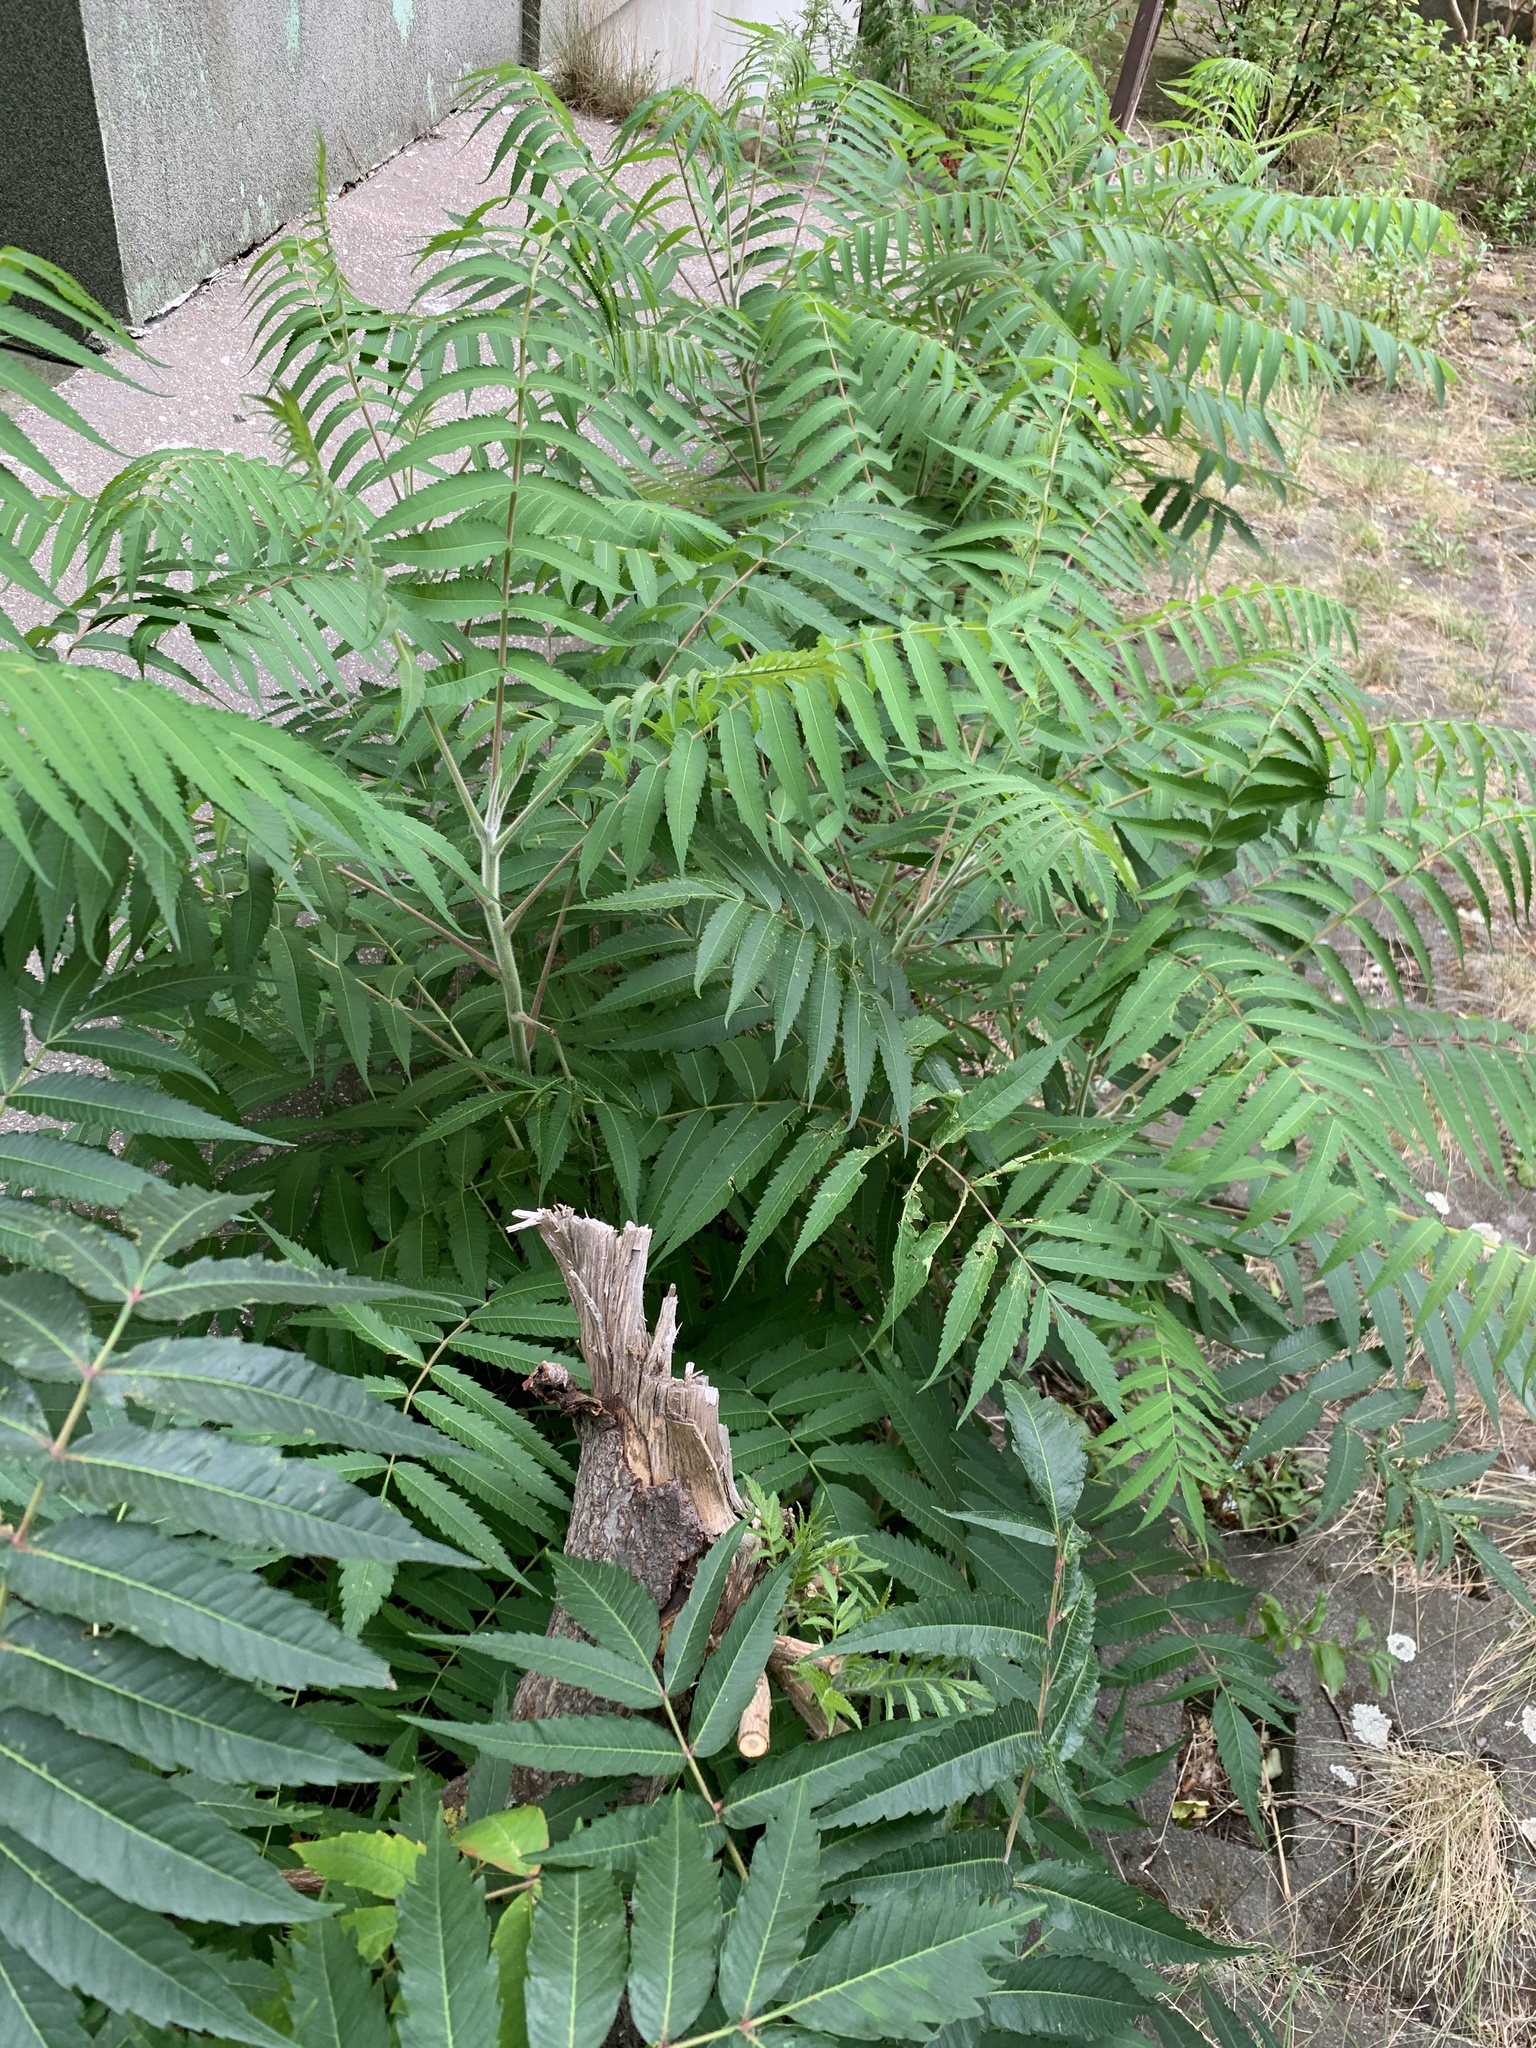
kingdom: Plantae
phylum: Tracheophyta
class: Magnoliopsida
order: Sapindales
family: Anacardiaceae
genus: Rhus
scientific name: Rhus typhina
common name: Staghorn sumac
